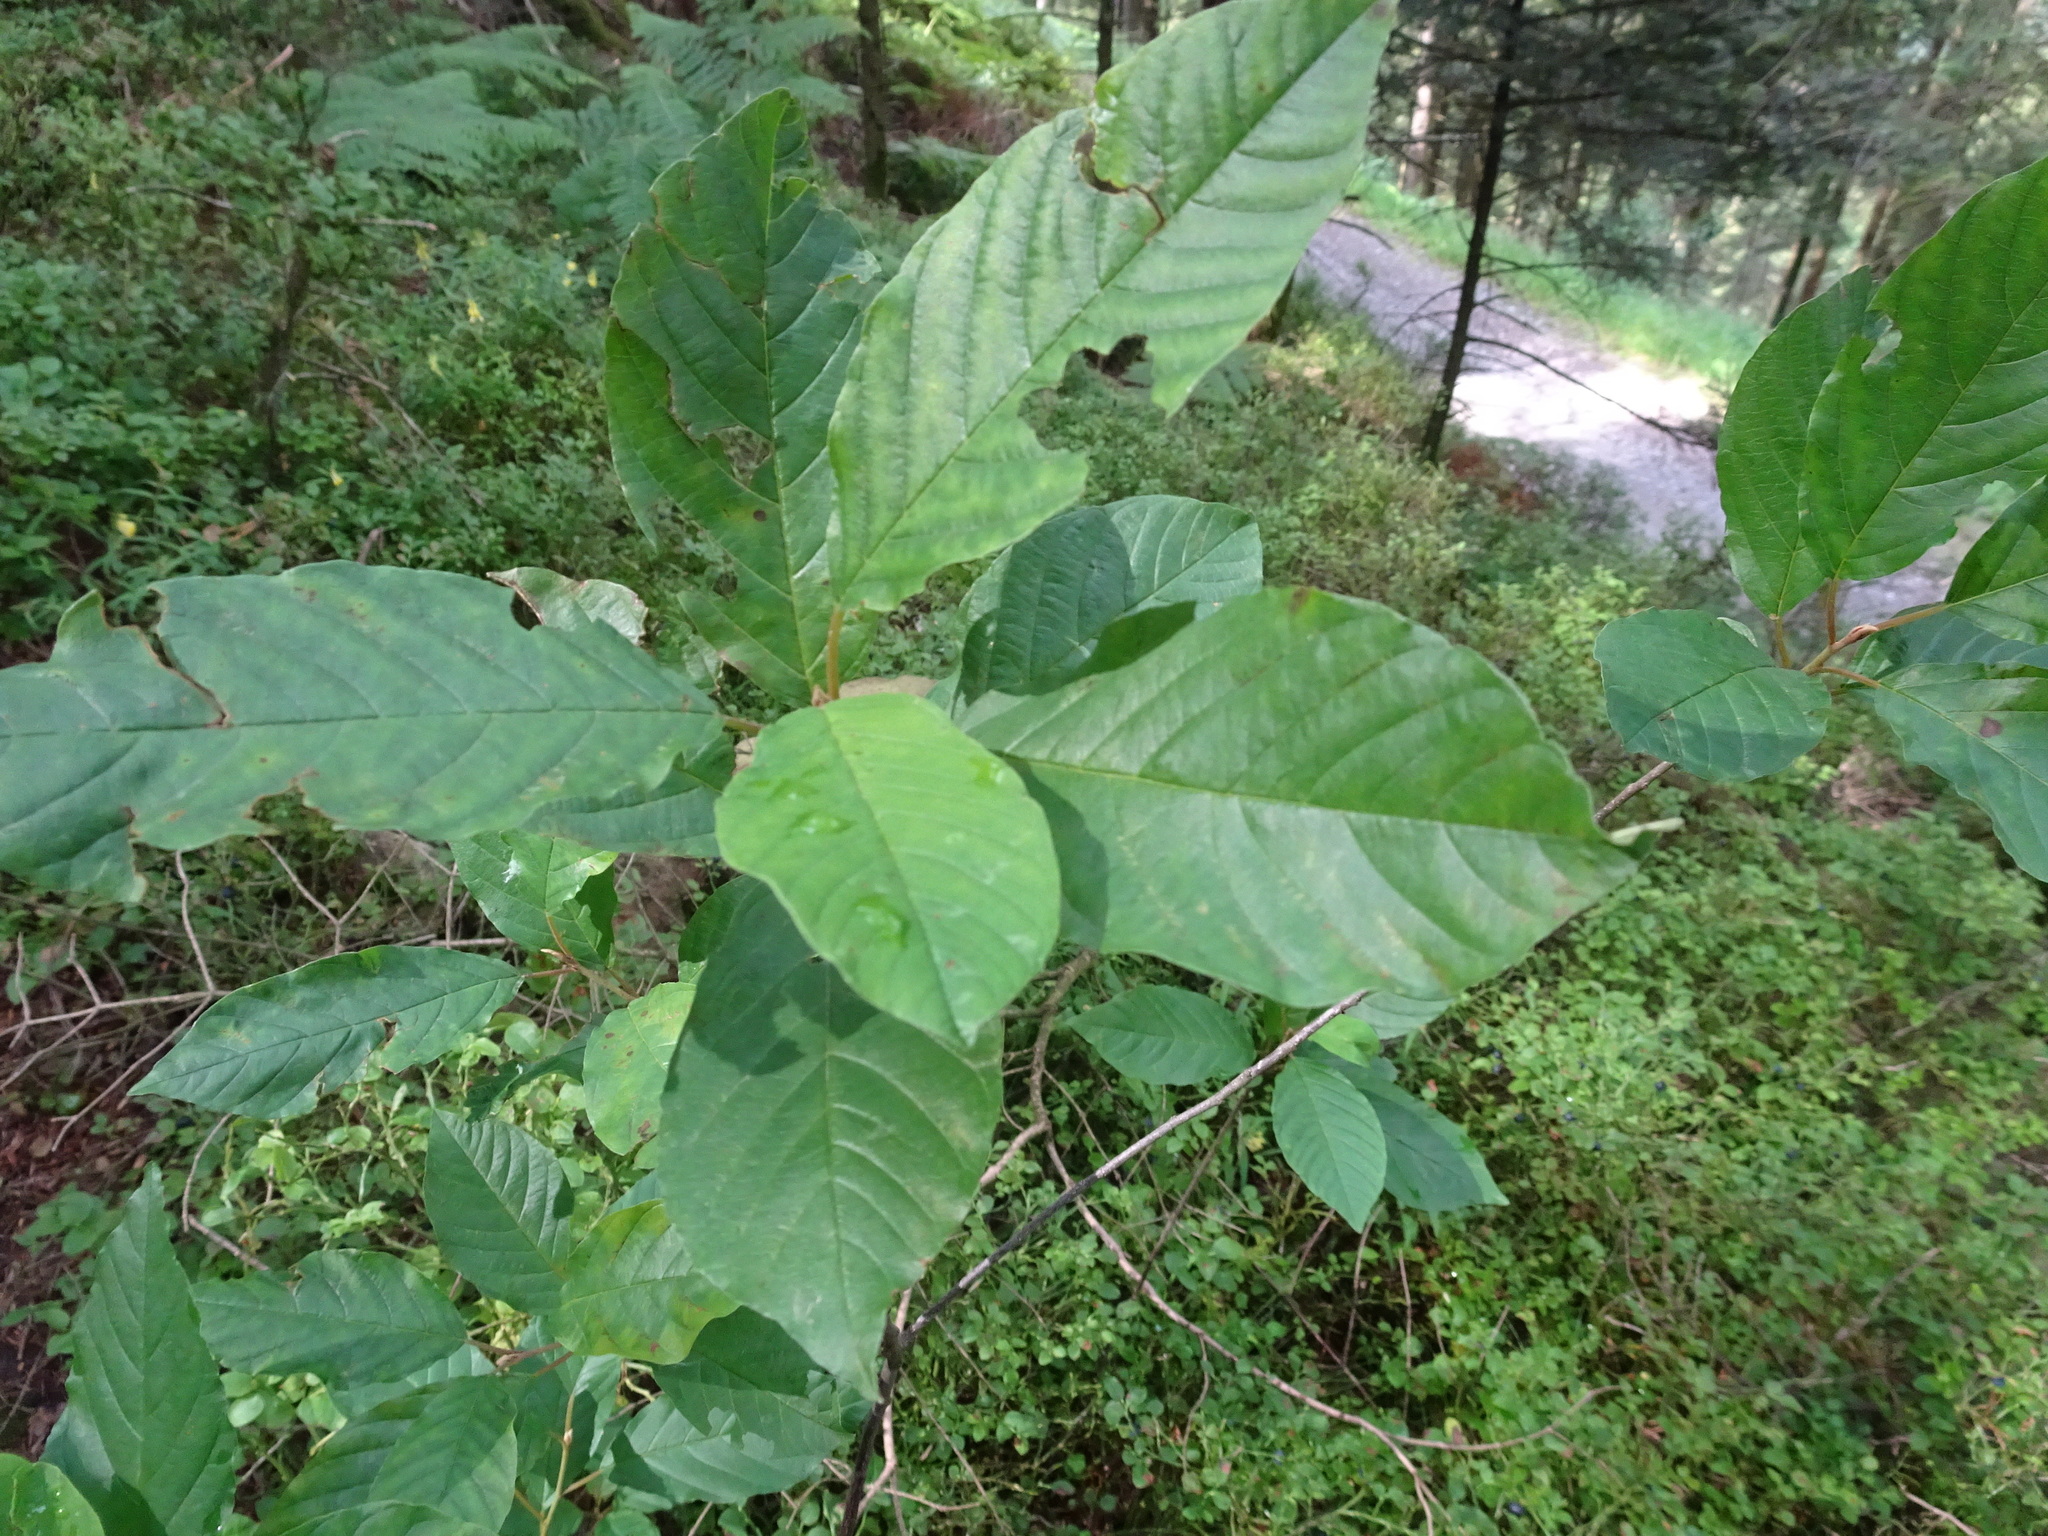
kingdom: Plantae
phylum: Tracheophyta
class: Magnoliopsida
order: Rosales
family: Rhamnaceae
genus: Frangula
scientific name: Frangula alnus
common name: Alder buckthorn
